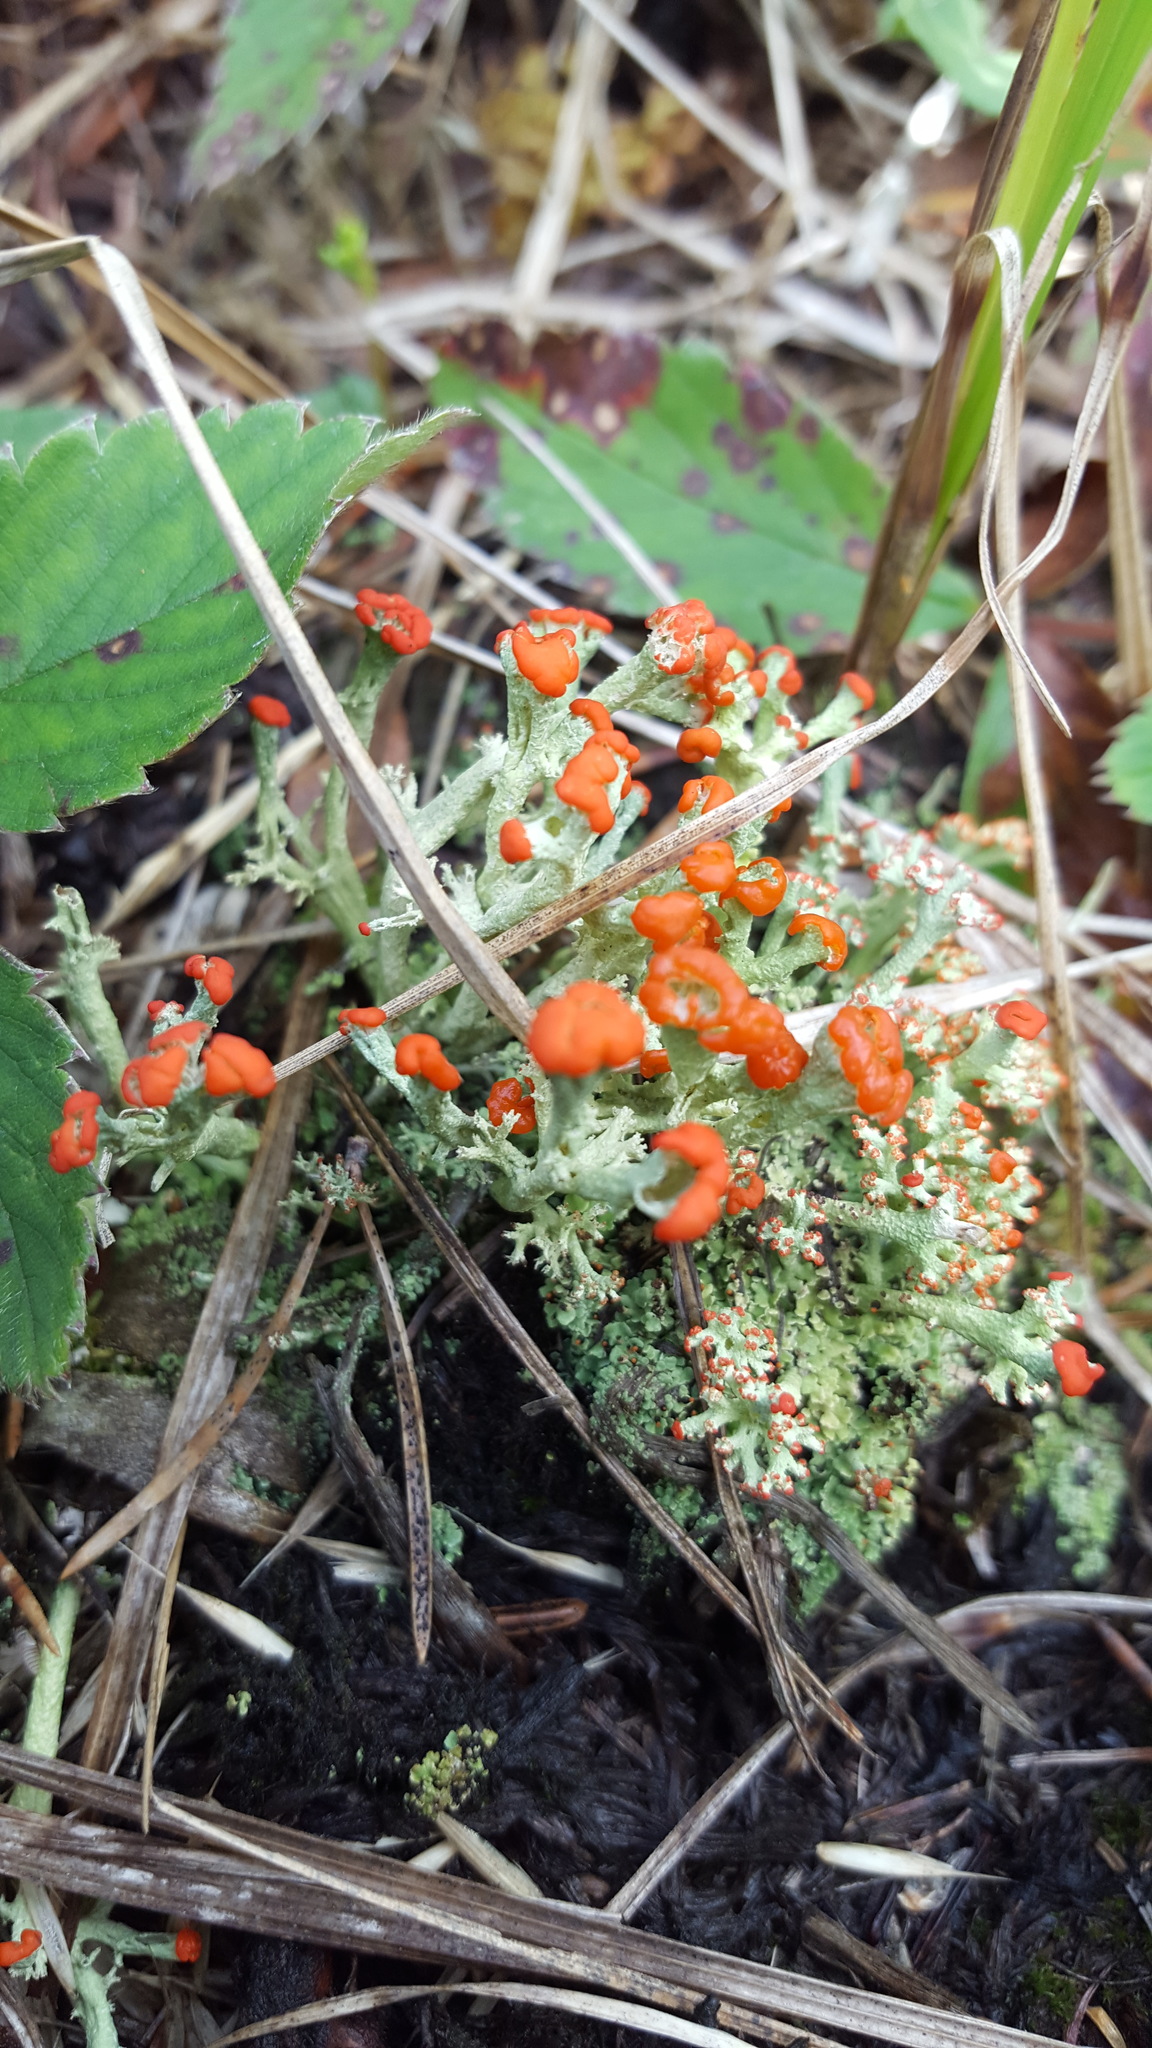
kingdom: Fungi
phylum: Ascomycota
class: Lecanoromycetes
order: Lecanorales
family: Cladoniaceae
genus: Cladonia
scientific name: Cladonia cristatella
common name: British soldier lichen
